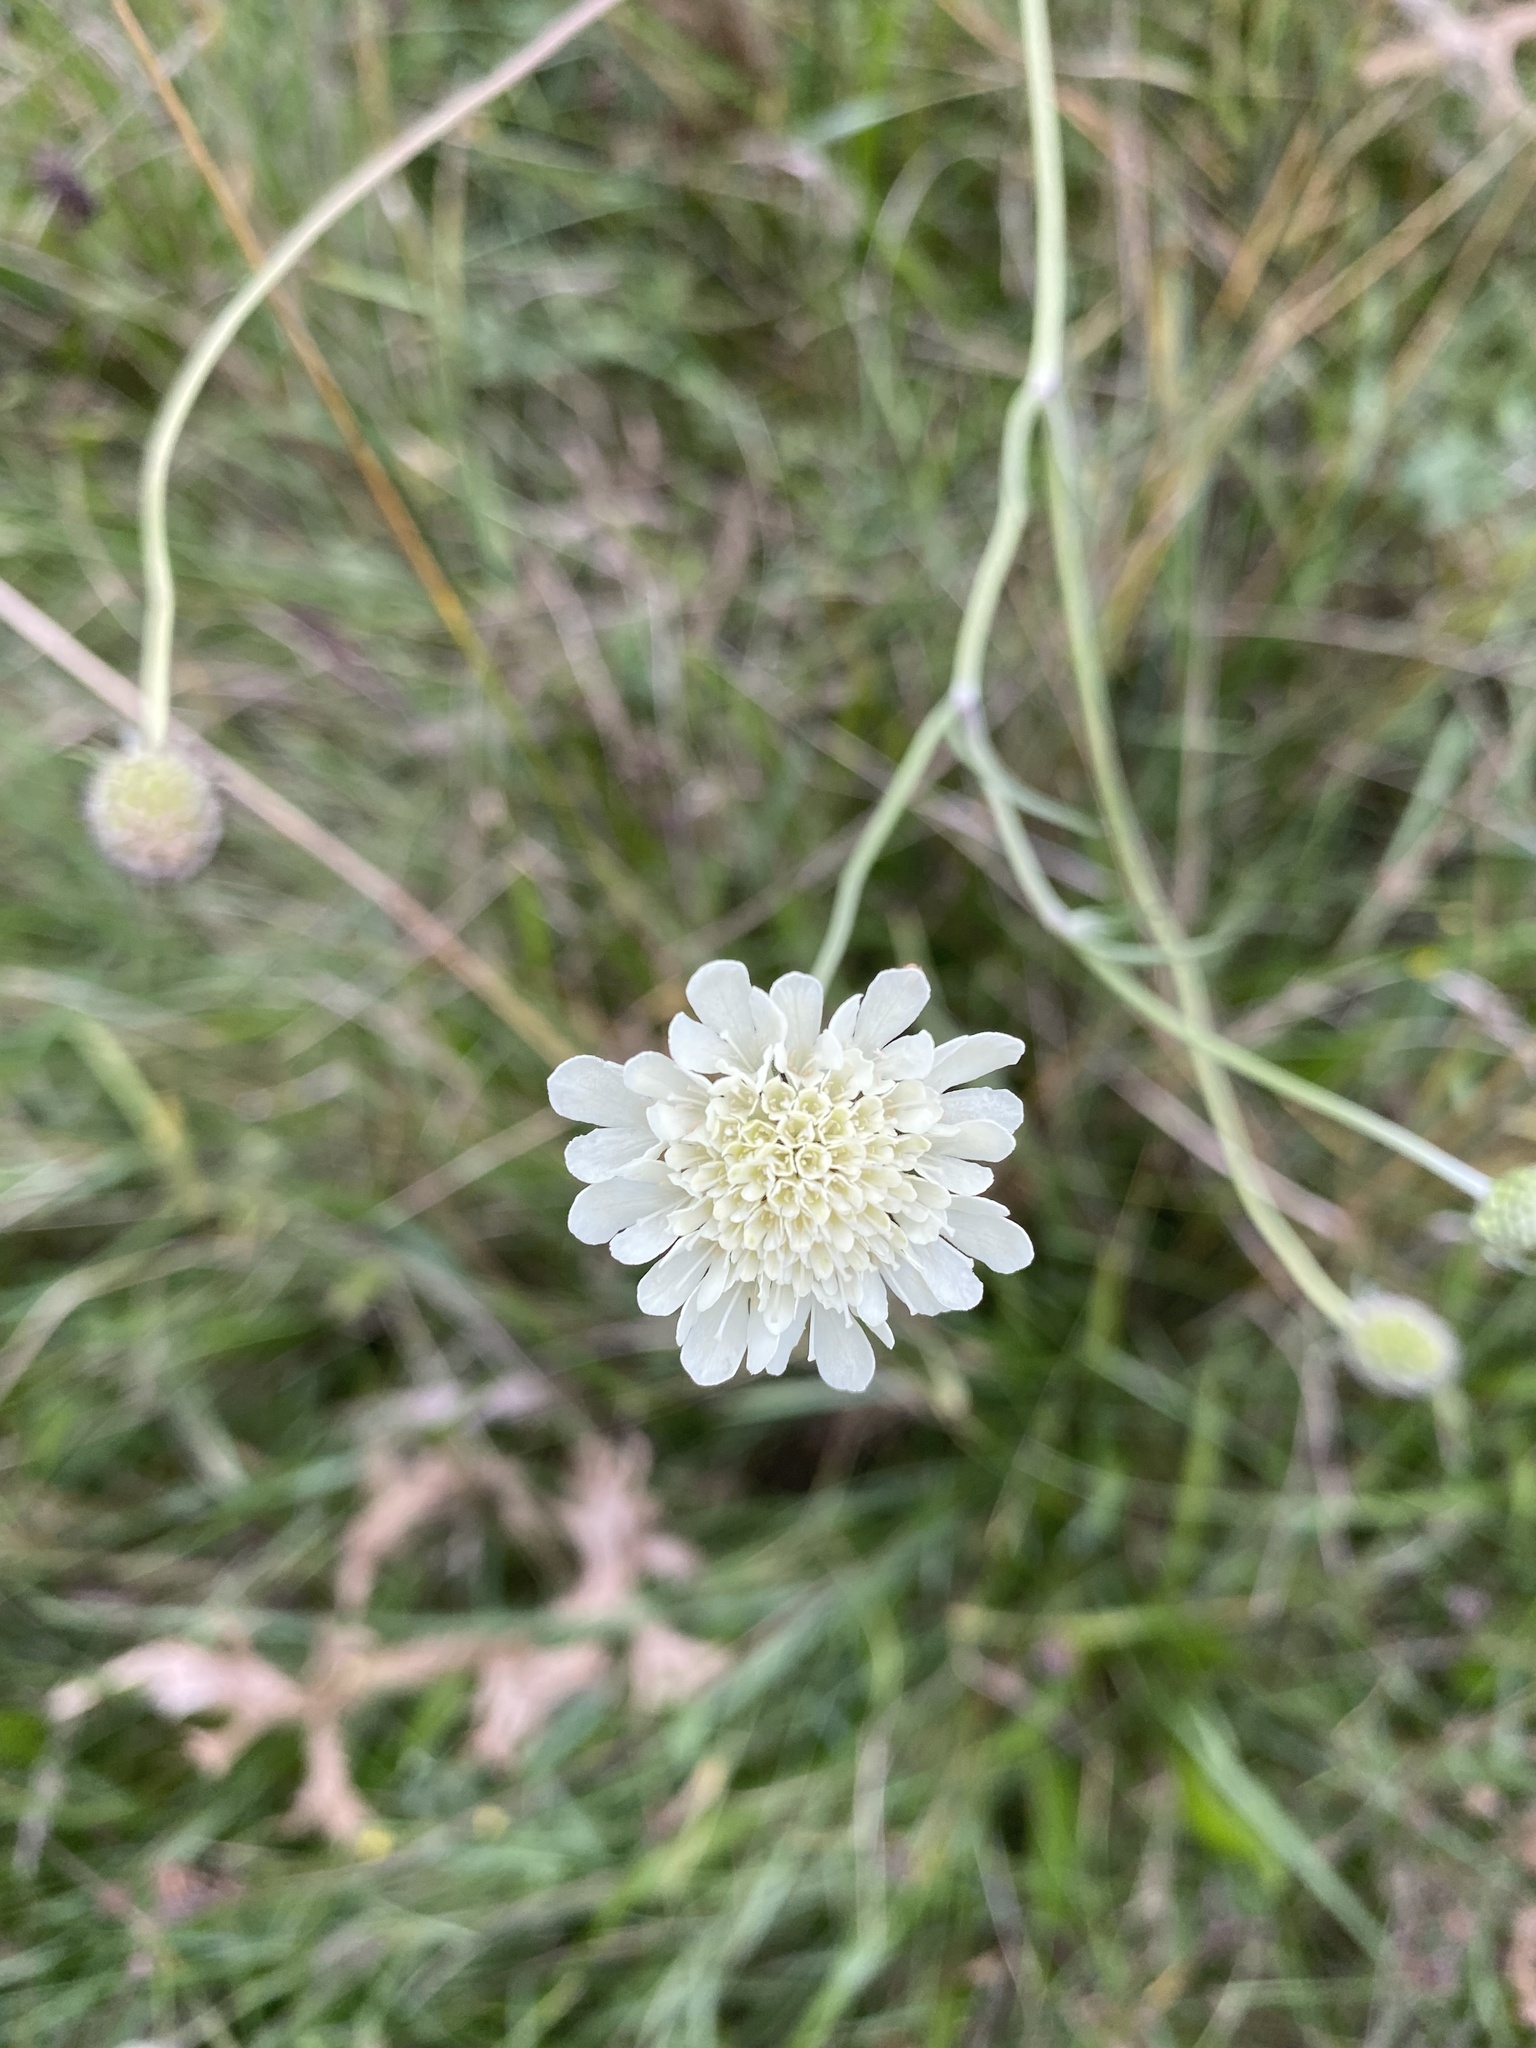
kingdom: Plantae
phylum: Tracheophyta
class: Magnoliopsida
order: Dipsacales
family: Caprifoliaceae
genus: Scabiosa
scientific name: Scabiosa ochroleuca
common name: Cream pincushions
